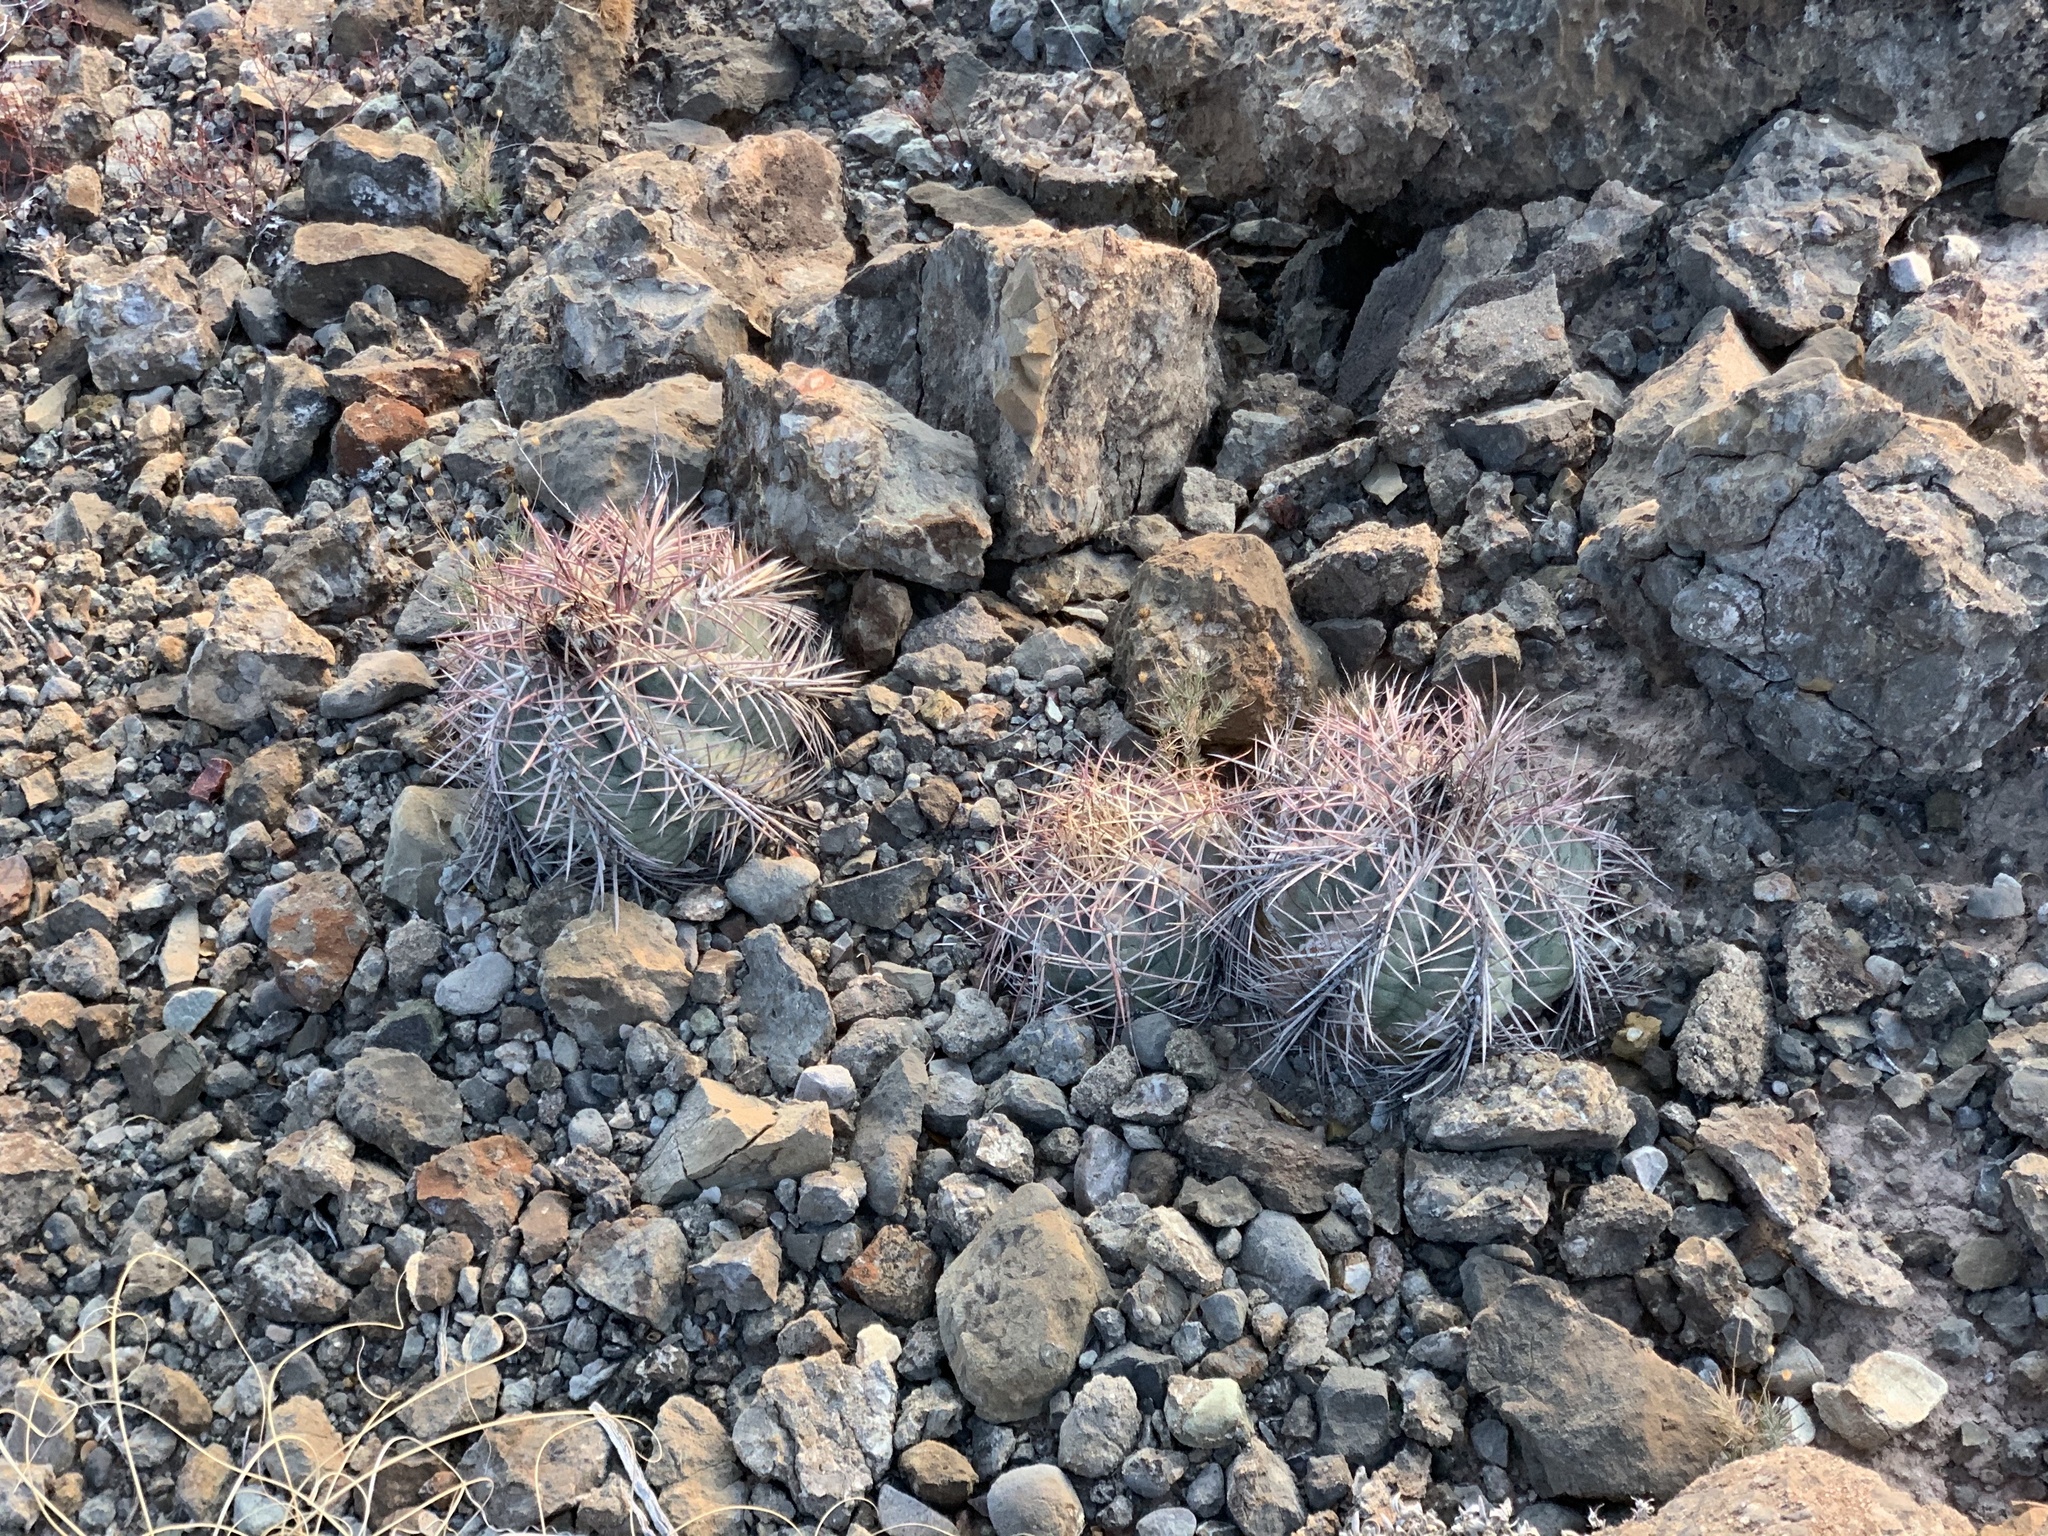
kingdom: Plantae
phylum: Tracheophyta
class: Magnoliopsida
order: Caryophyllales
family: Cactaceae
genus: Echinocactus
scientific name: Echinocactus horizonthalonius
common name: Devilshead
